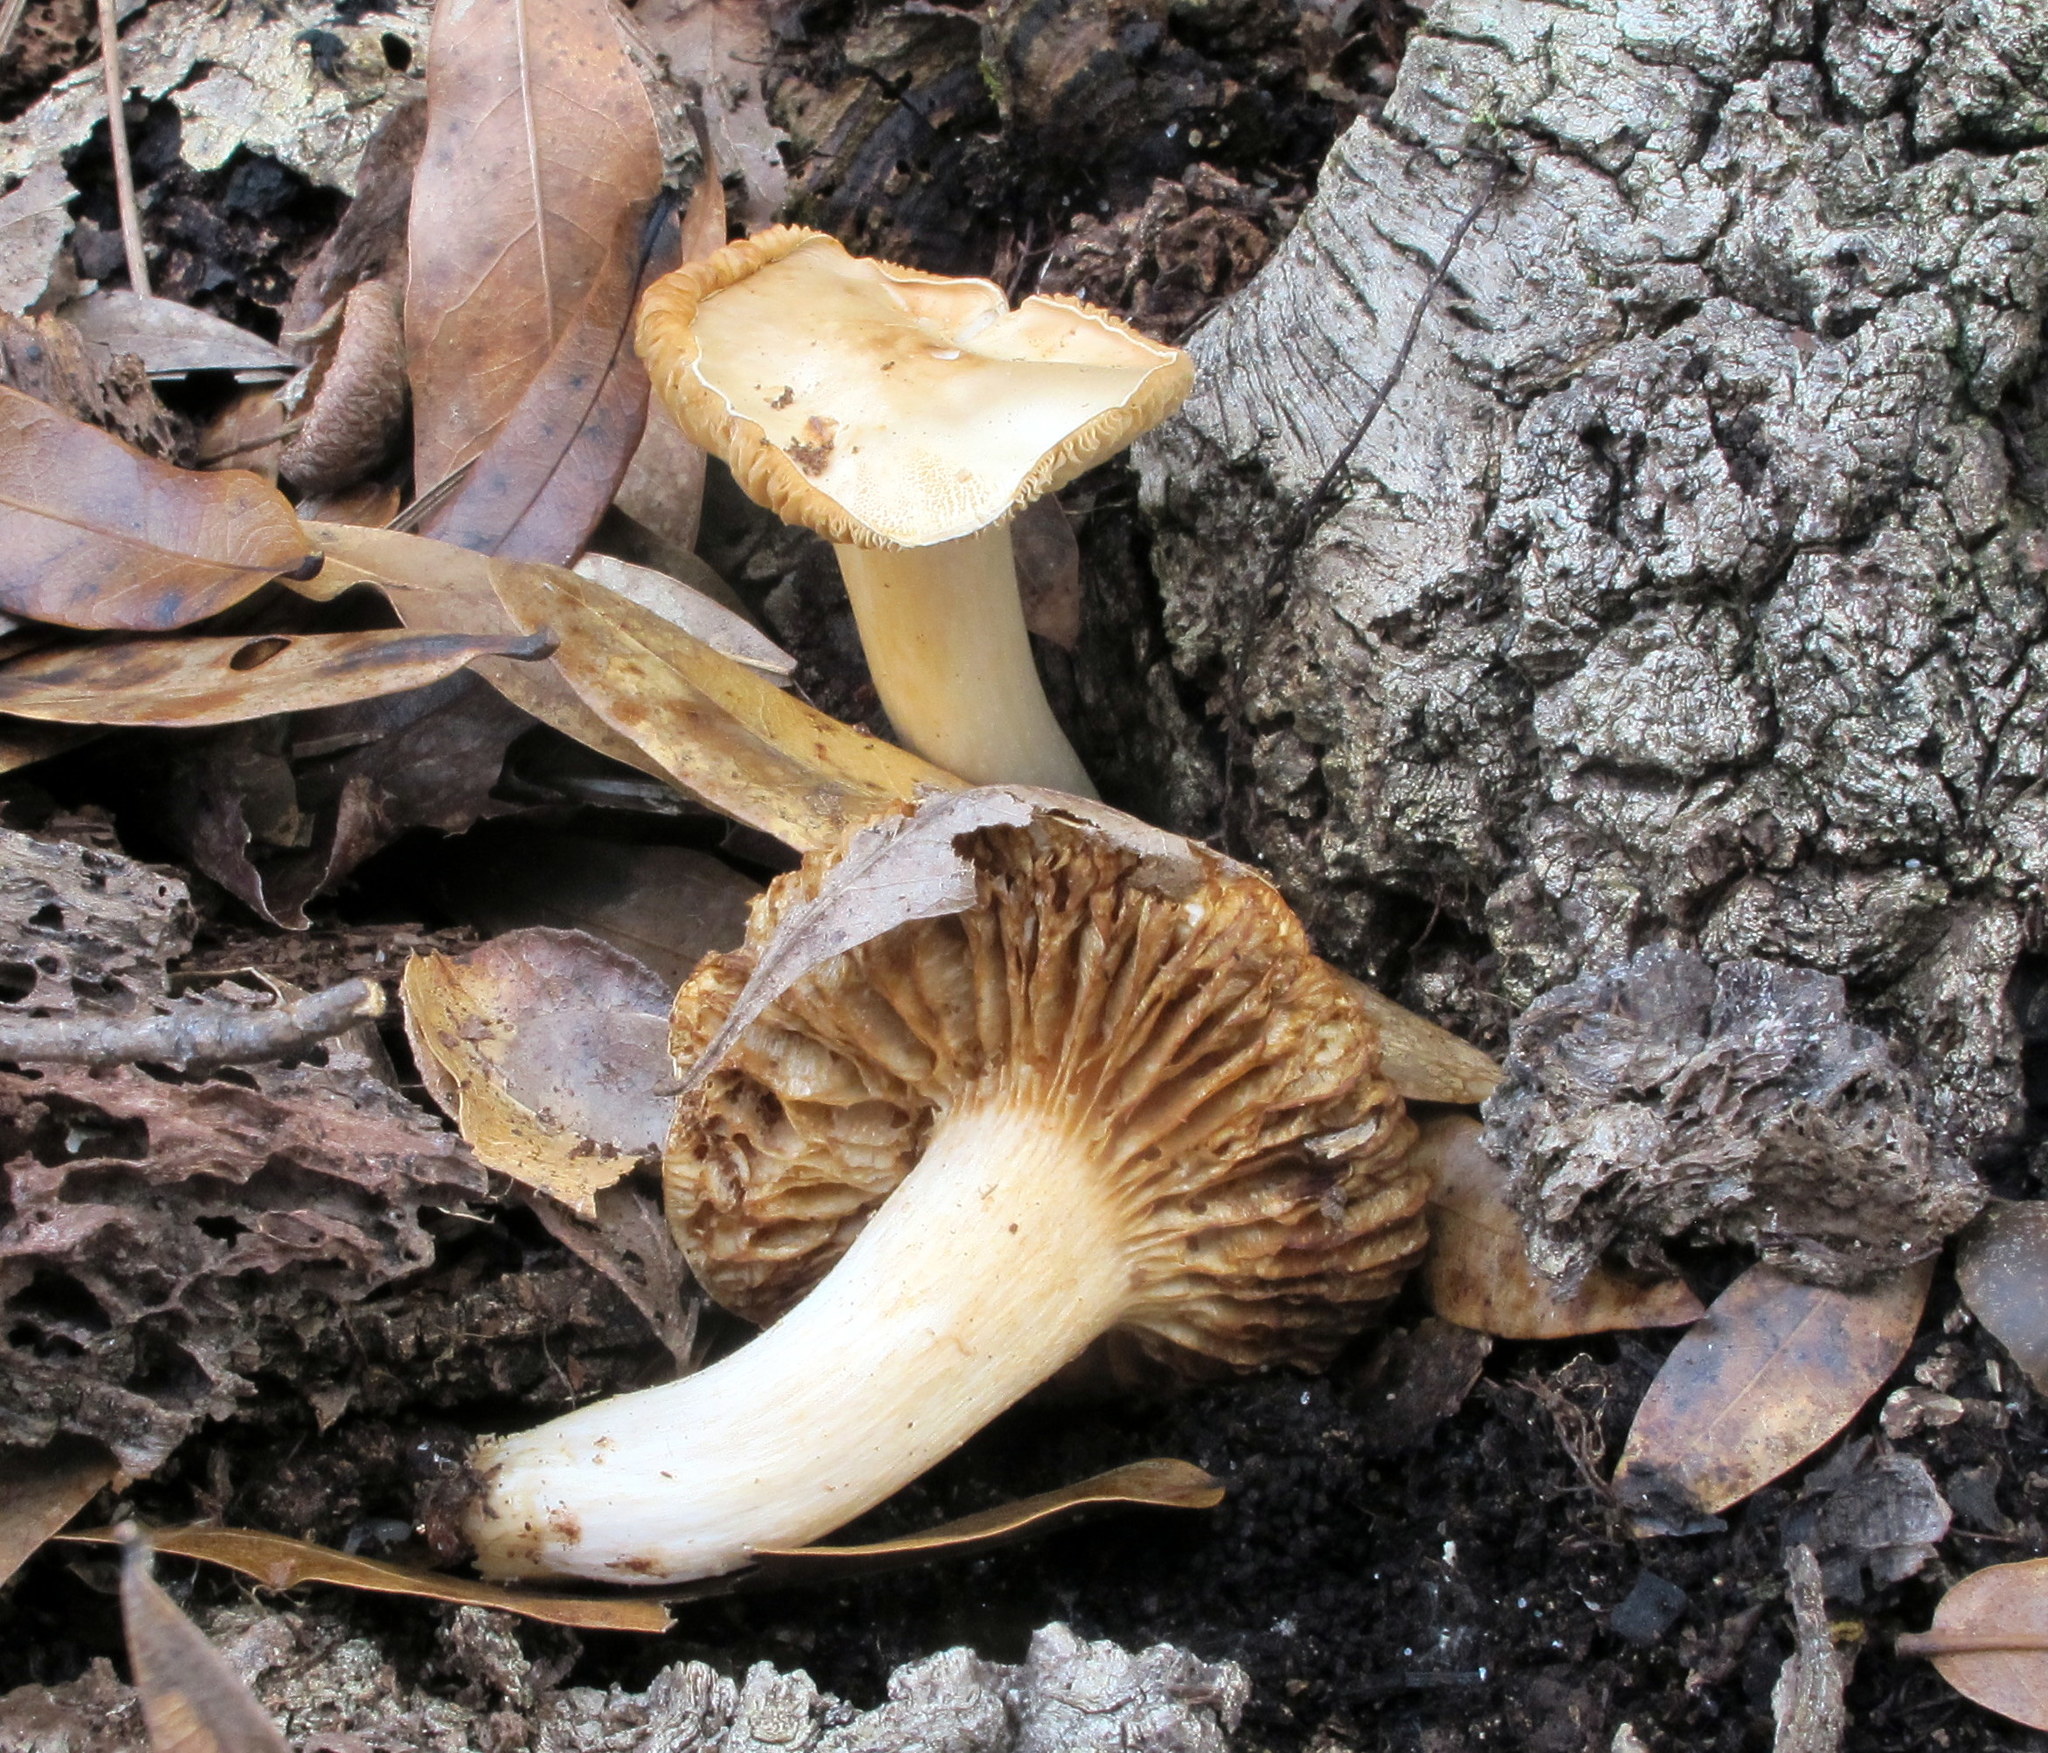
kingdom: Fungi
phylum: Basidiomycota
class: Agaricomycetes
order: Agaricales
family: Tricholomataceae
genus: Tricholoma
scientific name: Tricholoma sulphureum
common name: Stinky knight
